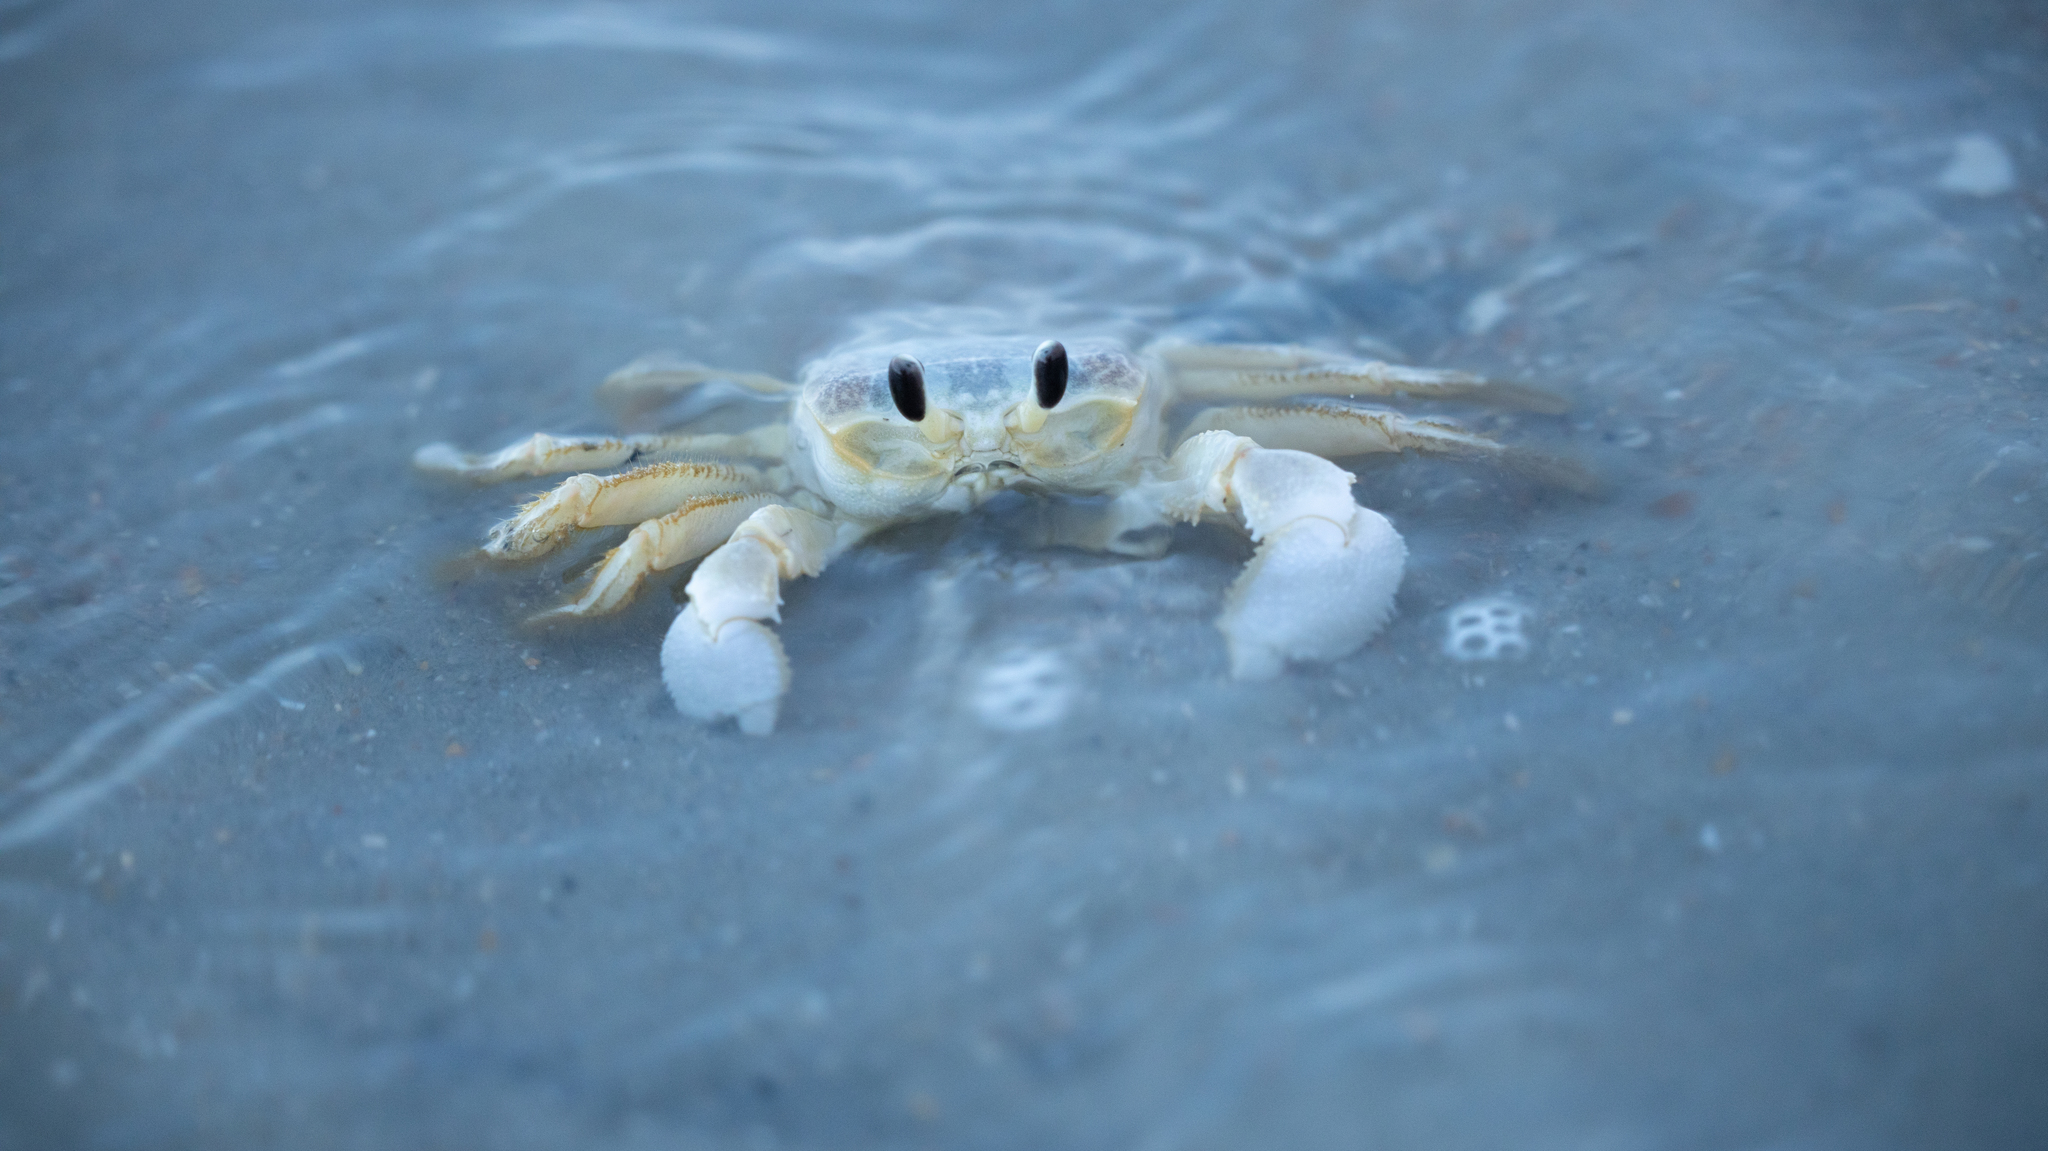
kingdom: Animalia
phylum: Arthropoda
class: Malacostraca
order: Decapoda
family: Ocypodidae
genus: Ocypode
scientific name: Ocypode quadrata
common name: Ghost crab
